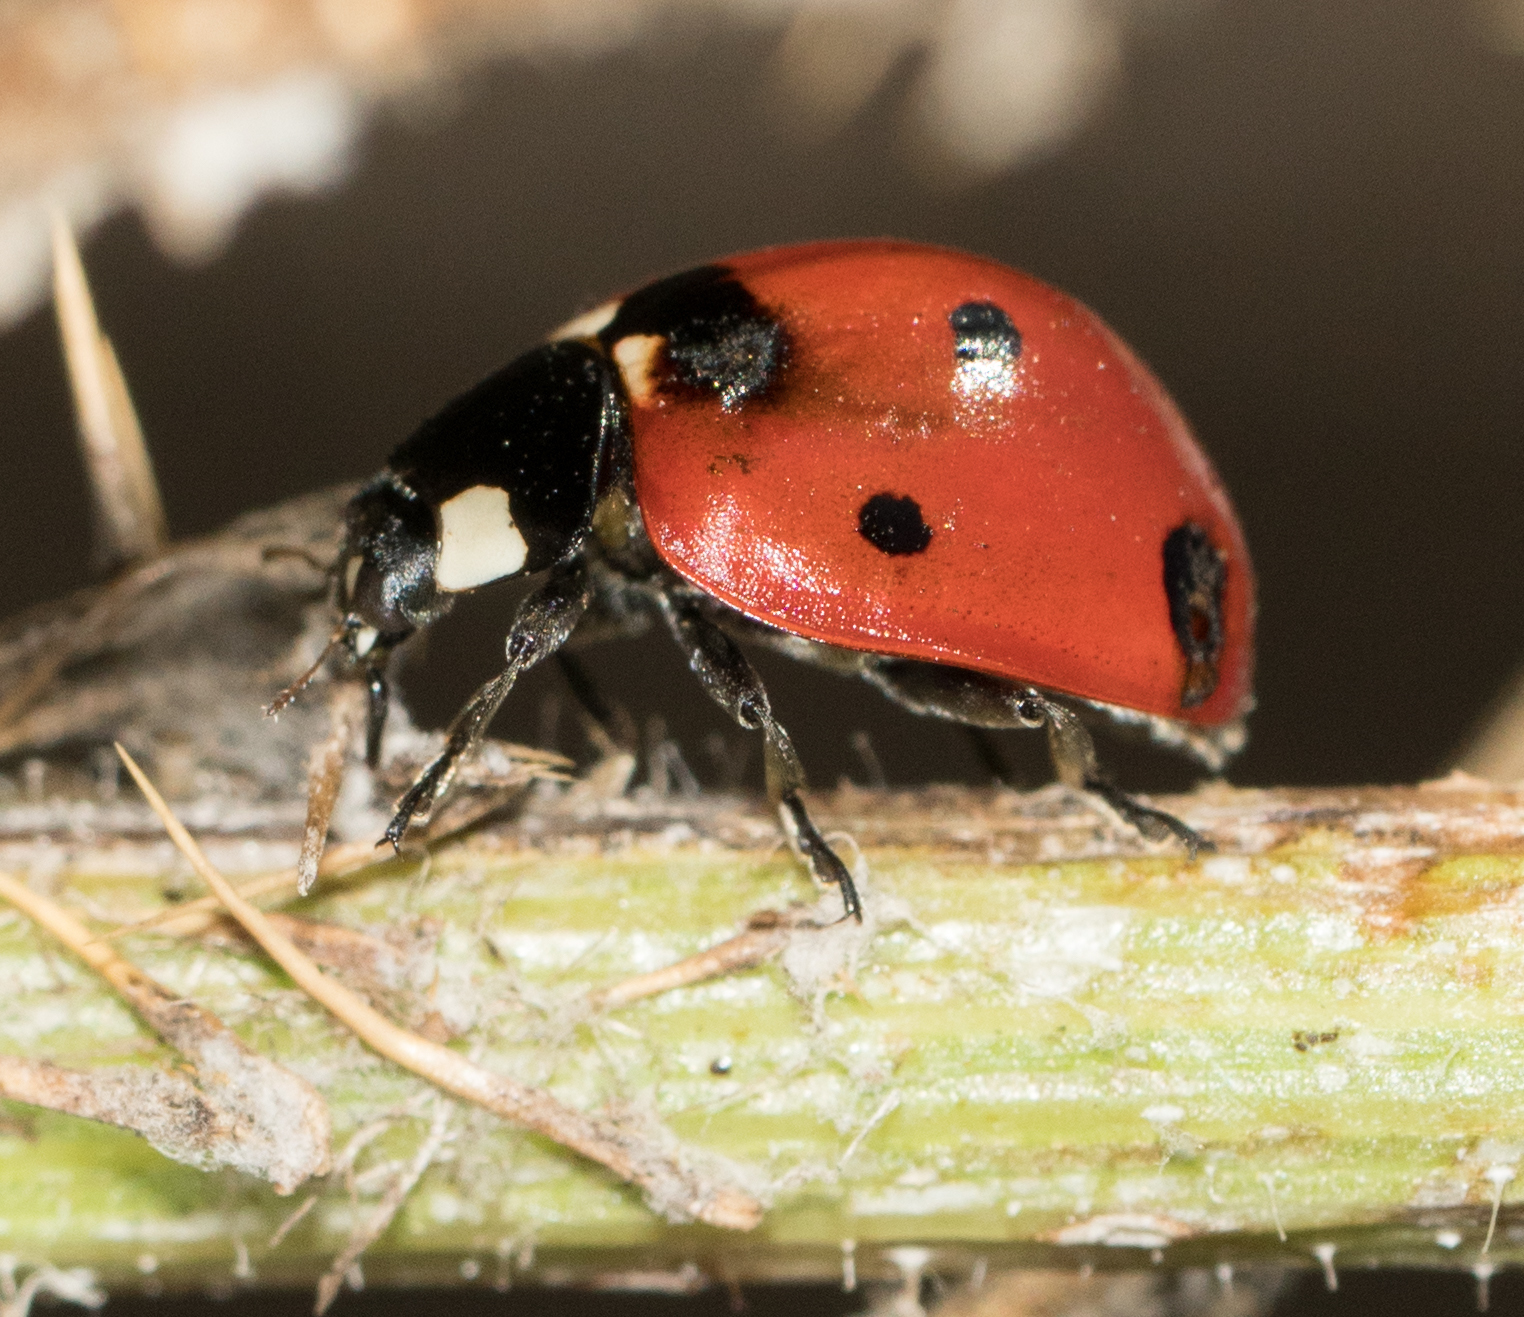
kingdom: Animalia
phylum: Arthropoda
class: Insecta
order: Coleoptera
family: Coccinellidae
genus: Coccinella
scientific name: Coccinella septempunctata
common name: Sevenspotted lady beetle
